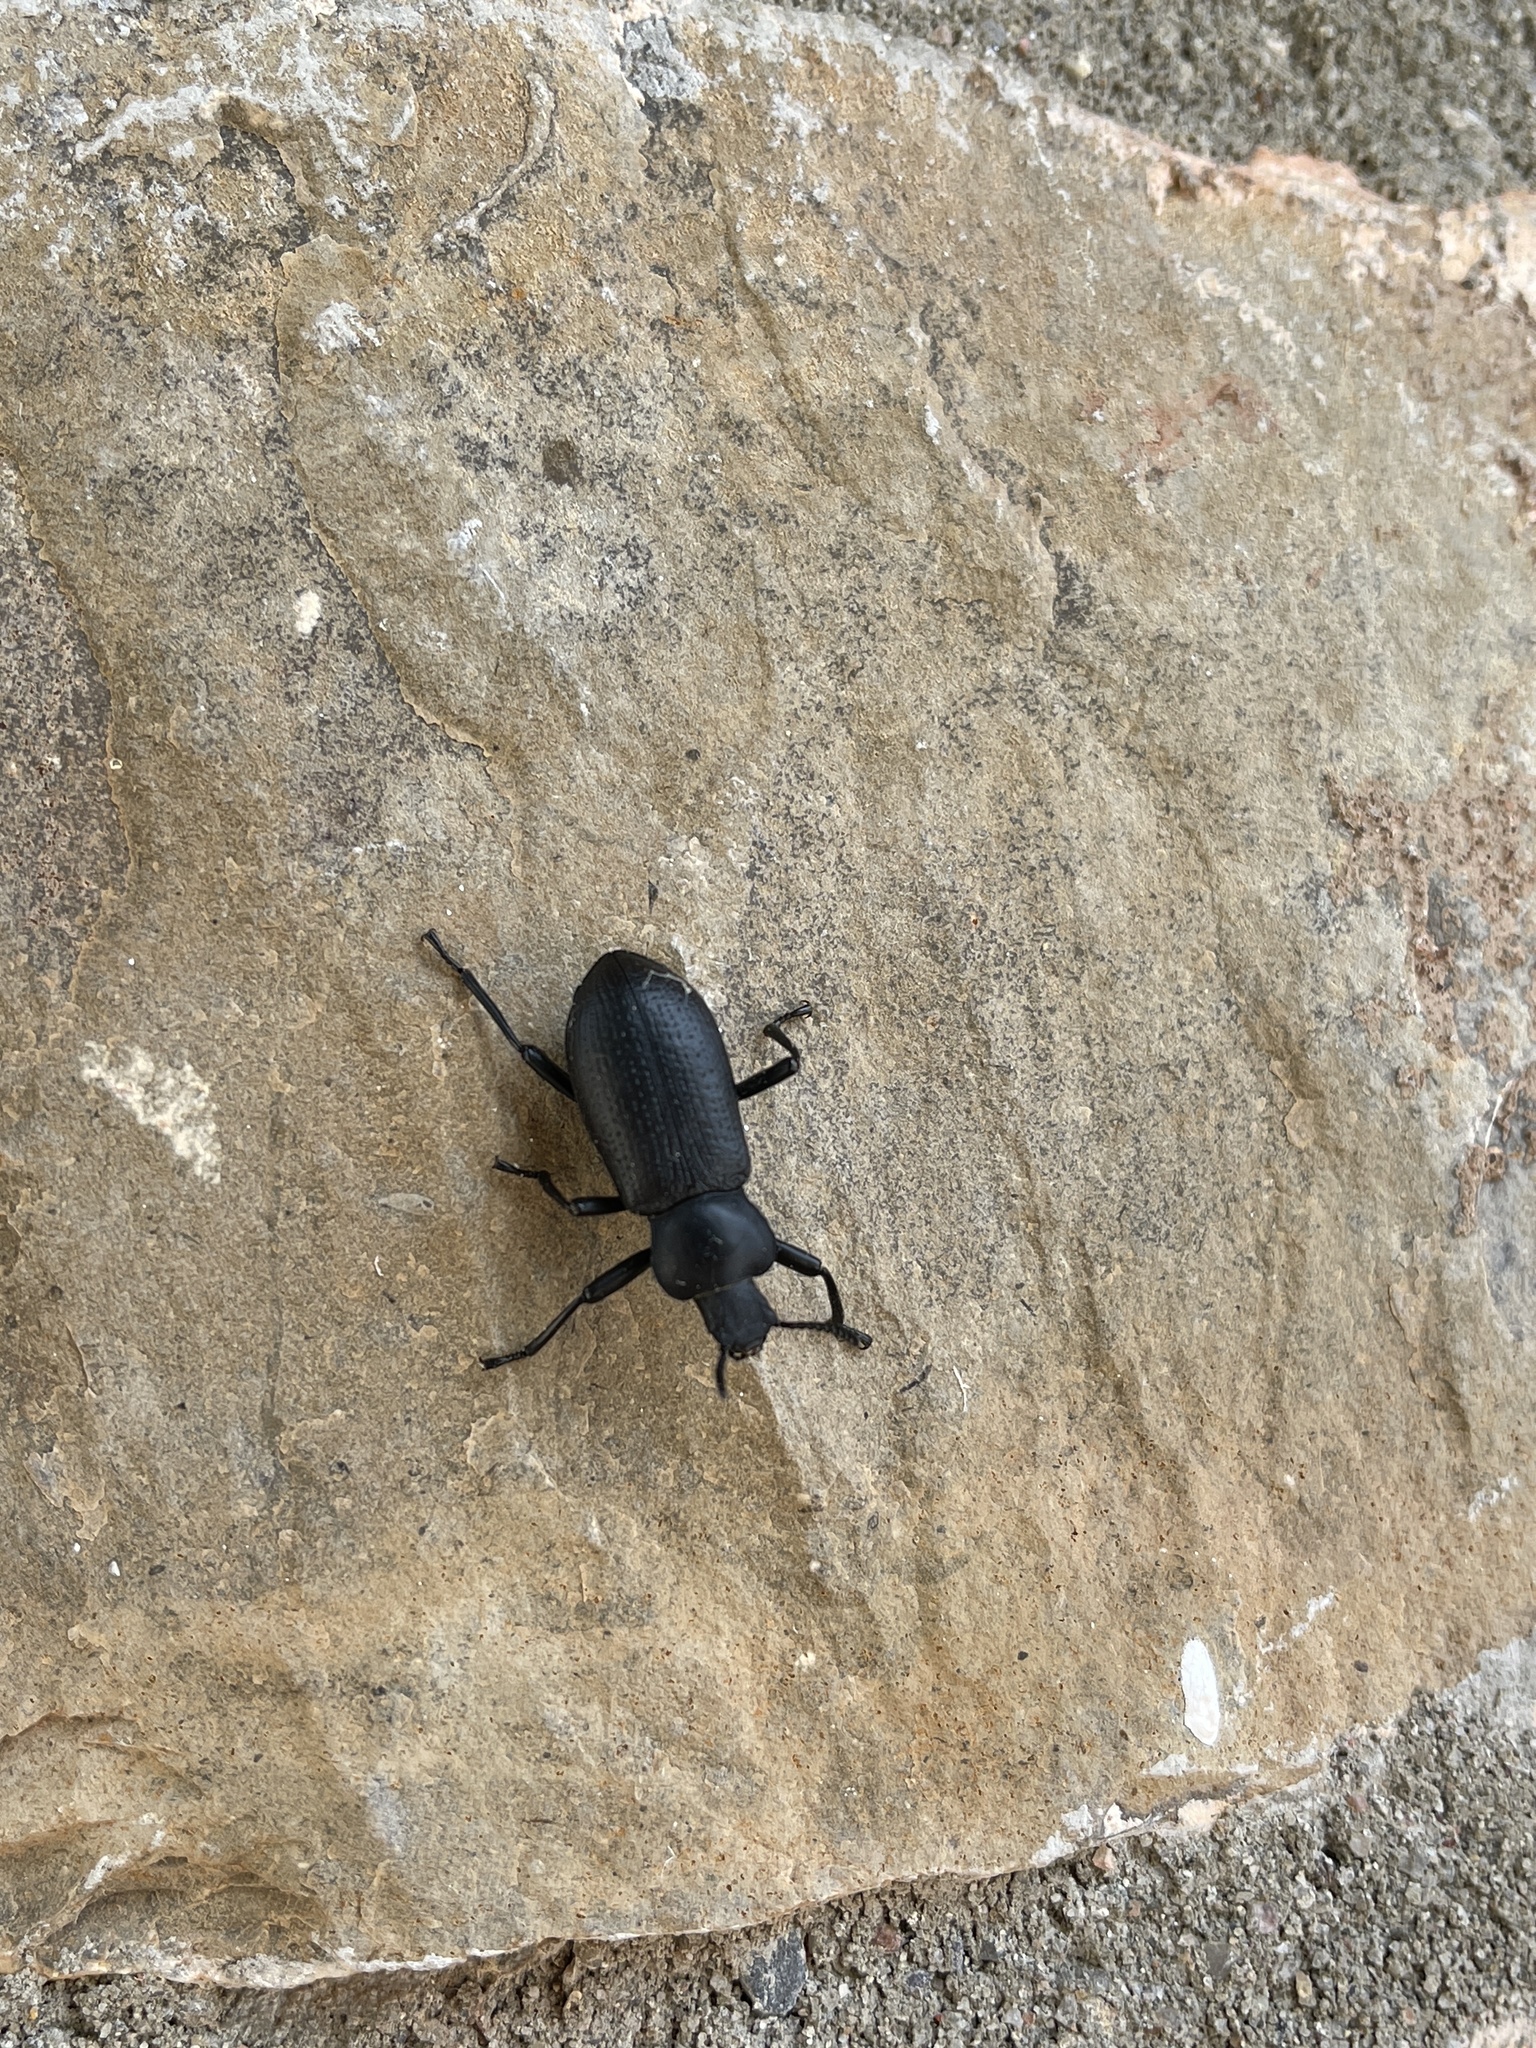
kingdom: Animalia
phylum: Arthropoda
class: Insecta
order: Coleoptera
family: Tenebrionidae
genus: Iphthiminus
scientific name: Iphthiminus lewisii
